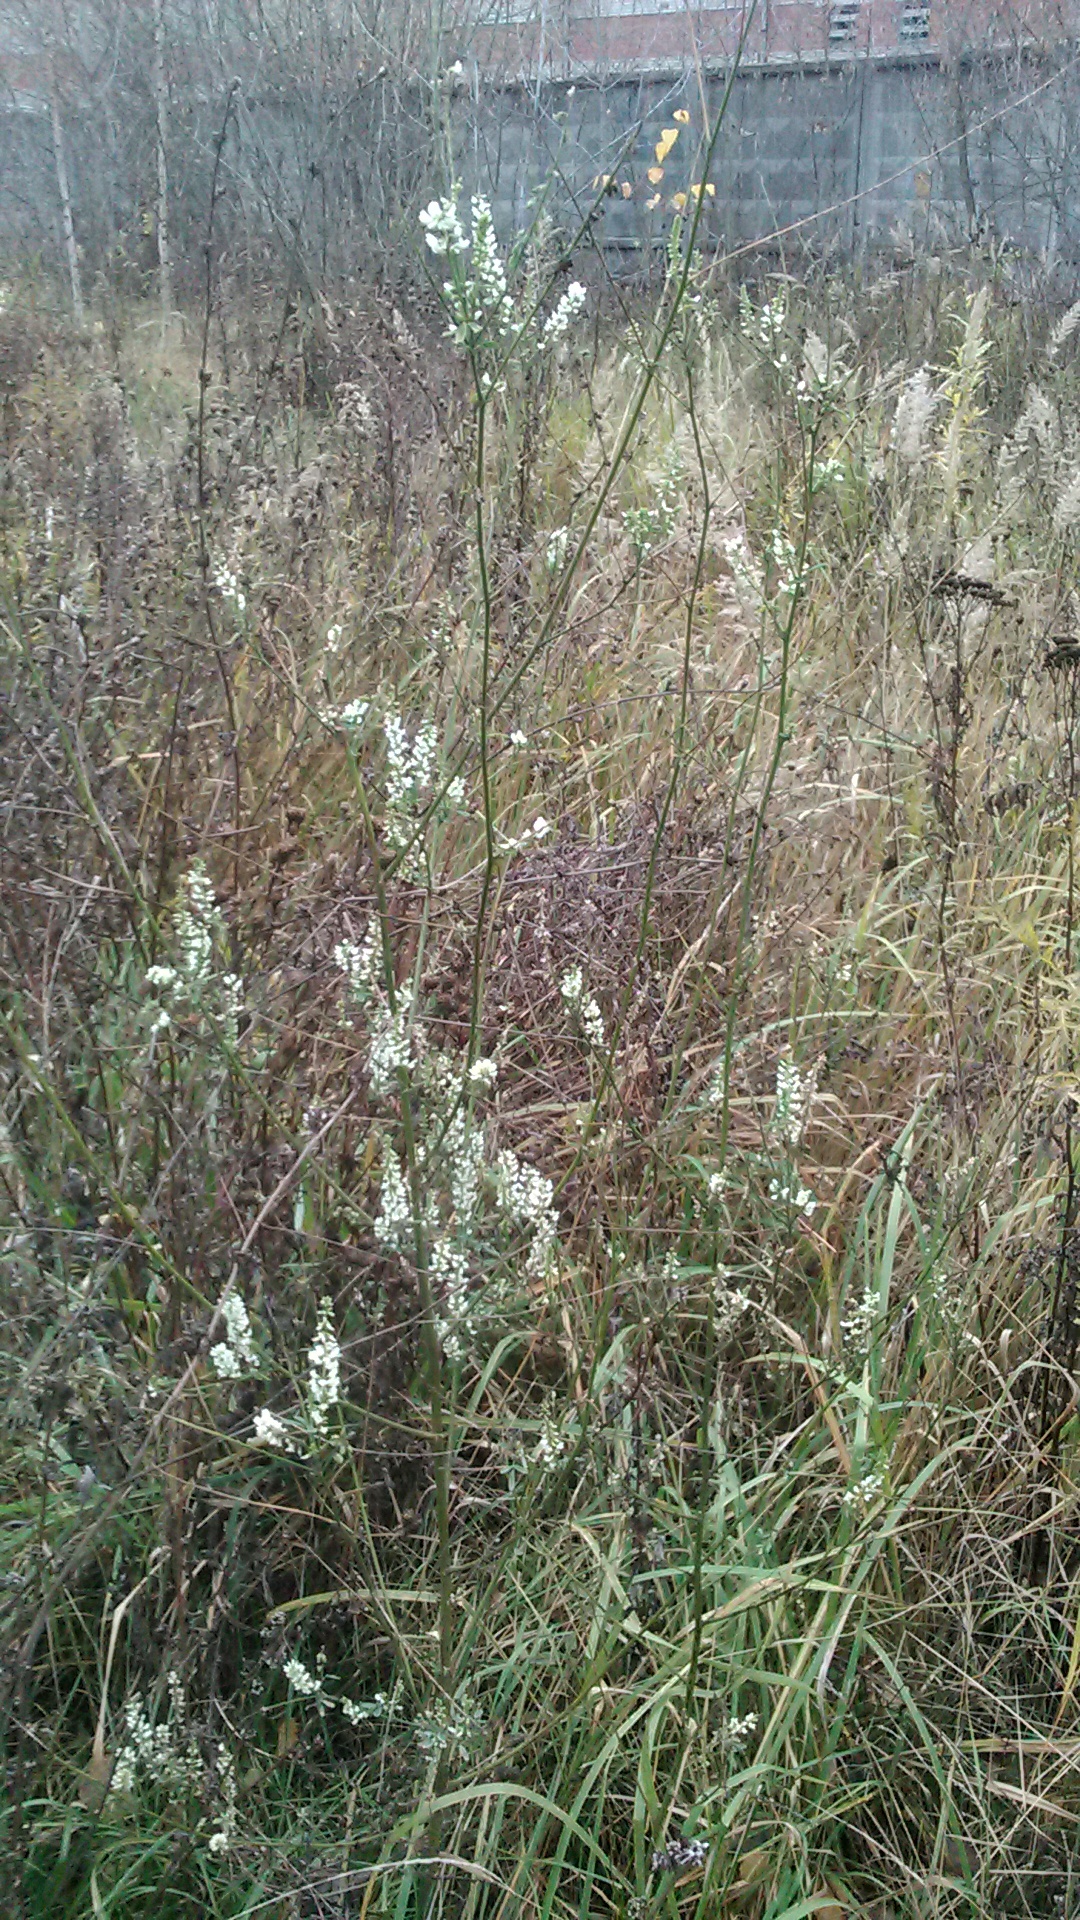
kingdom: Plantae
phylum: Tracheophyta
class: Magnoliopsida
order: Fabales
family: Fabaceae
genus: Melilotus
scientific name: Melilotus albus
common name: White melilot
